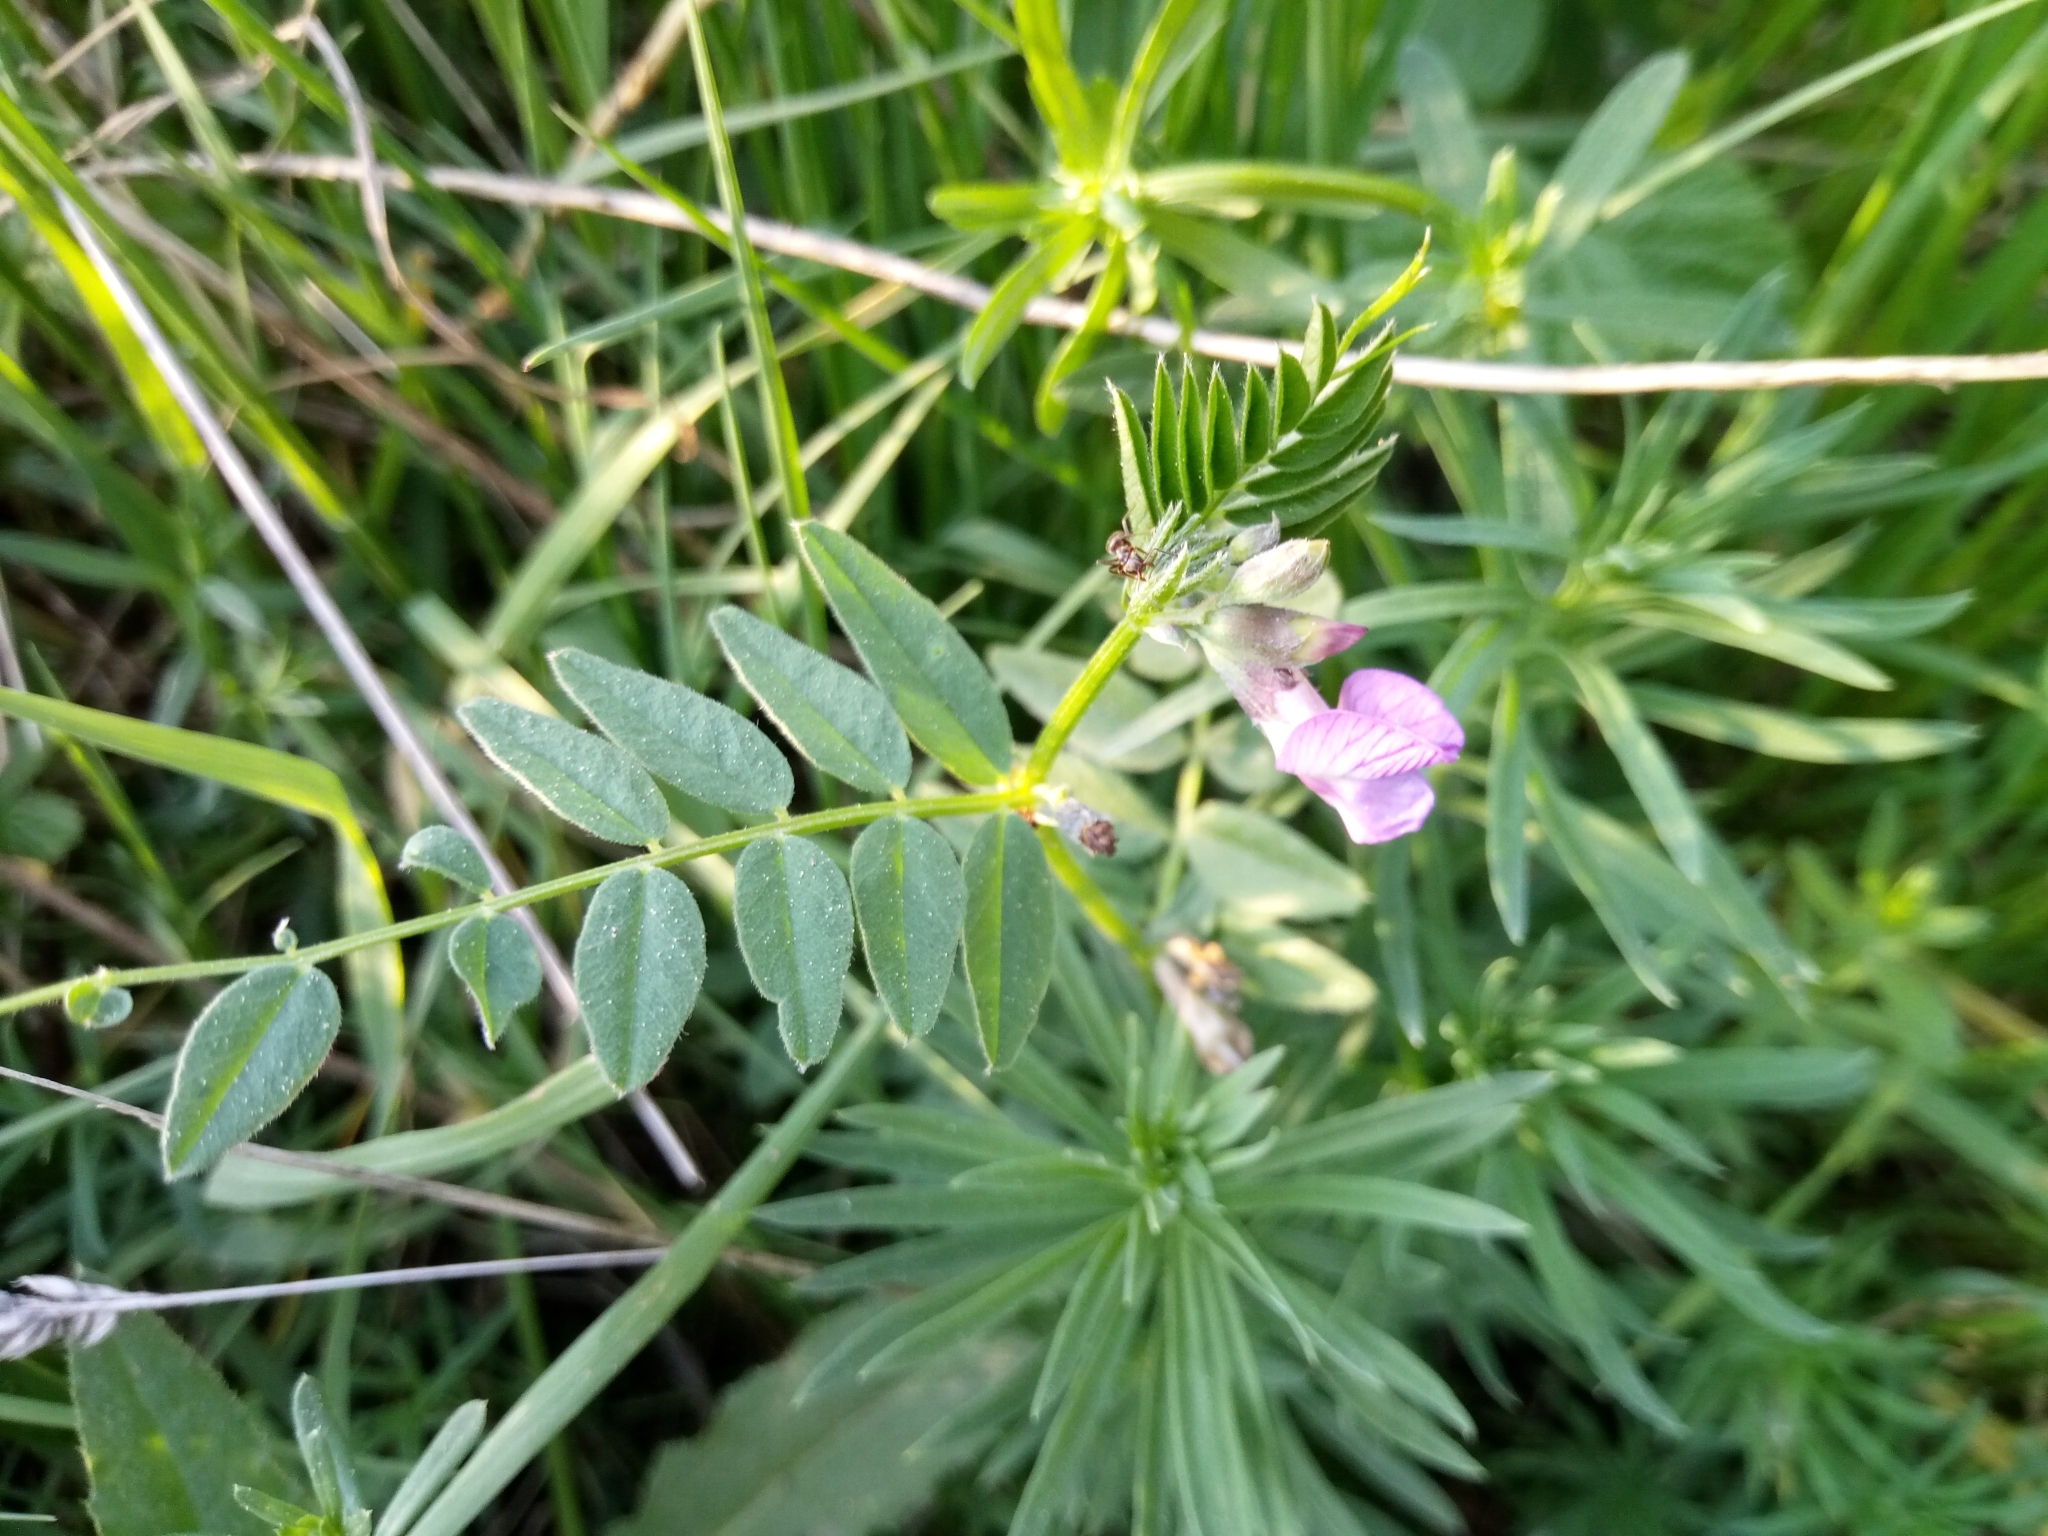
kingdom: Plantae
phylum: Tracheophyta
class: Magnoliopsida
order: Fabales
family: Fabaceae
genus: Vicia
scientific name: Vicia sepium
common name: Bush vetch
